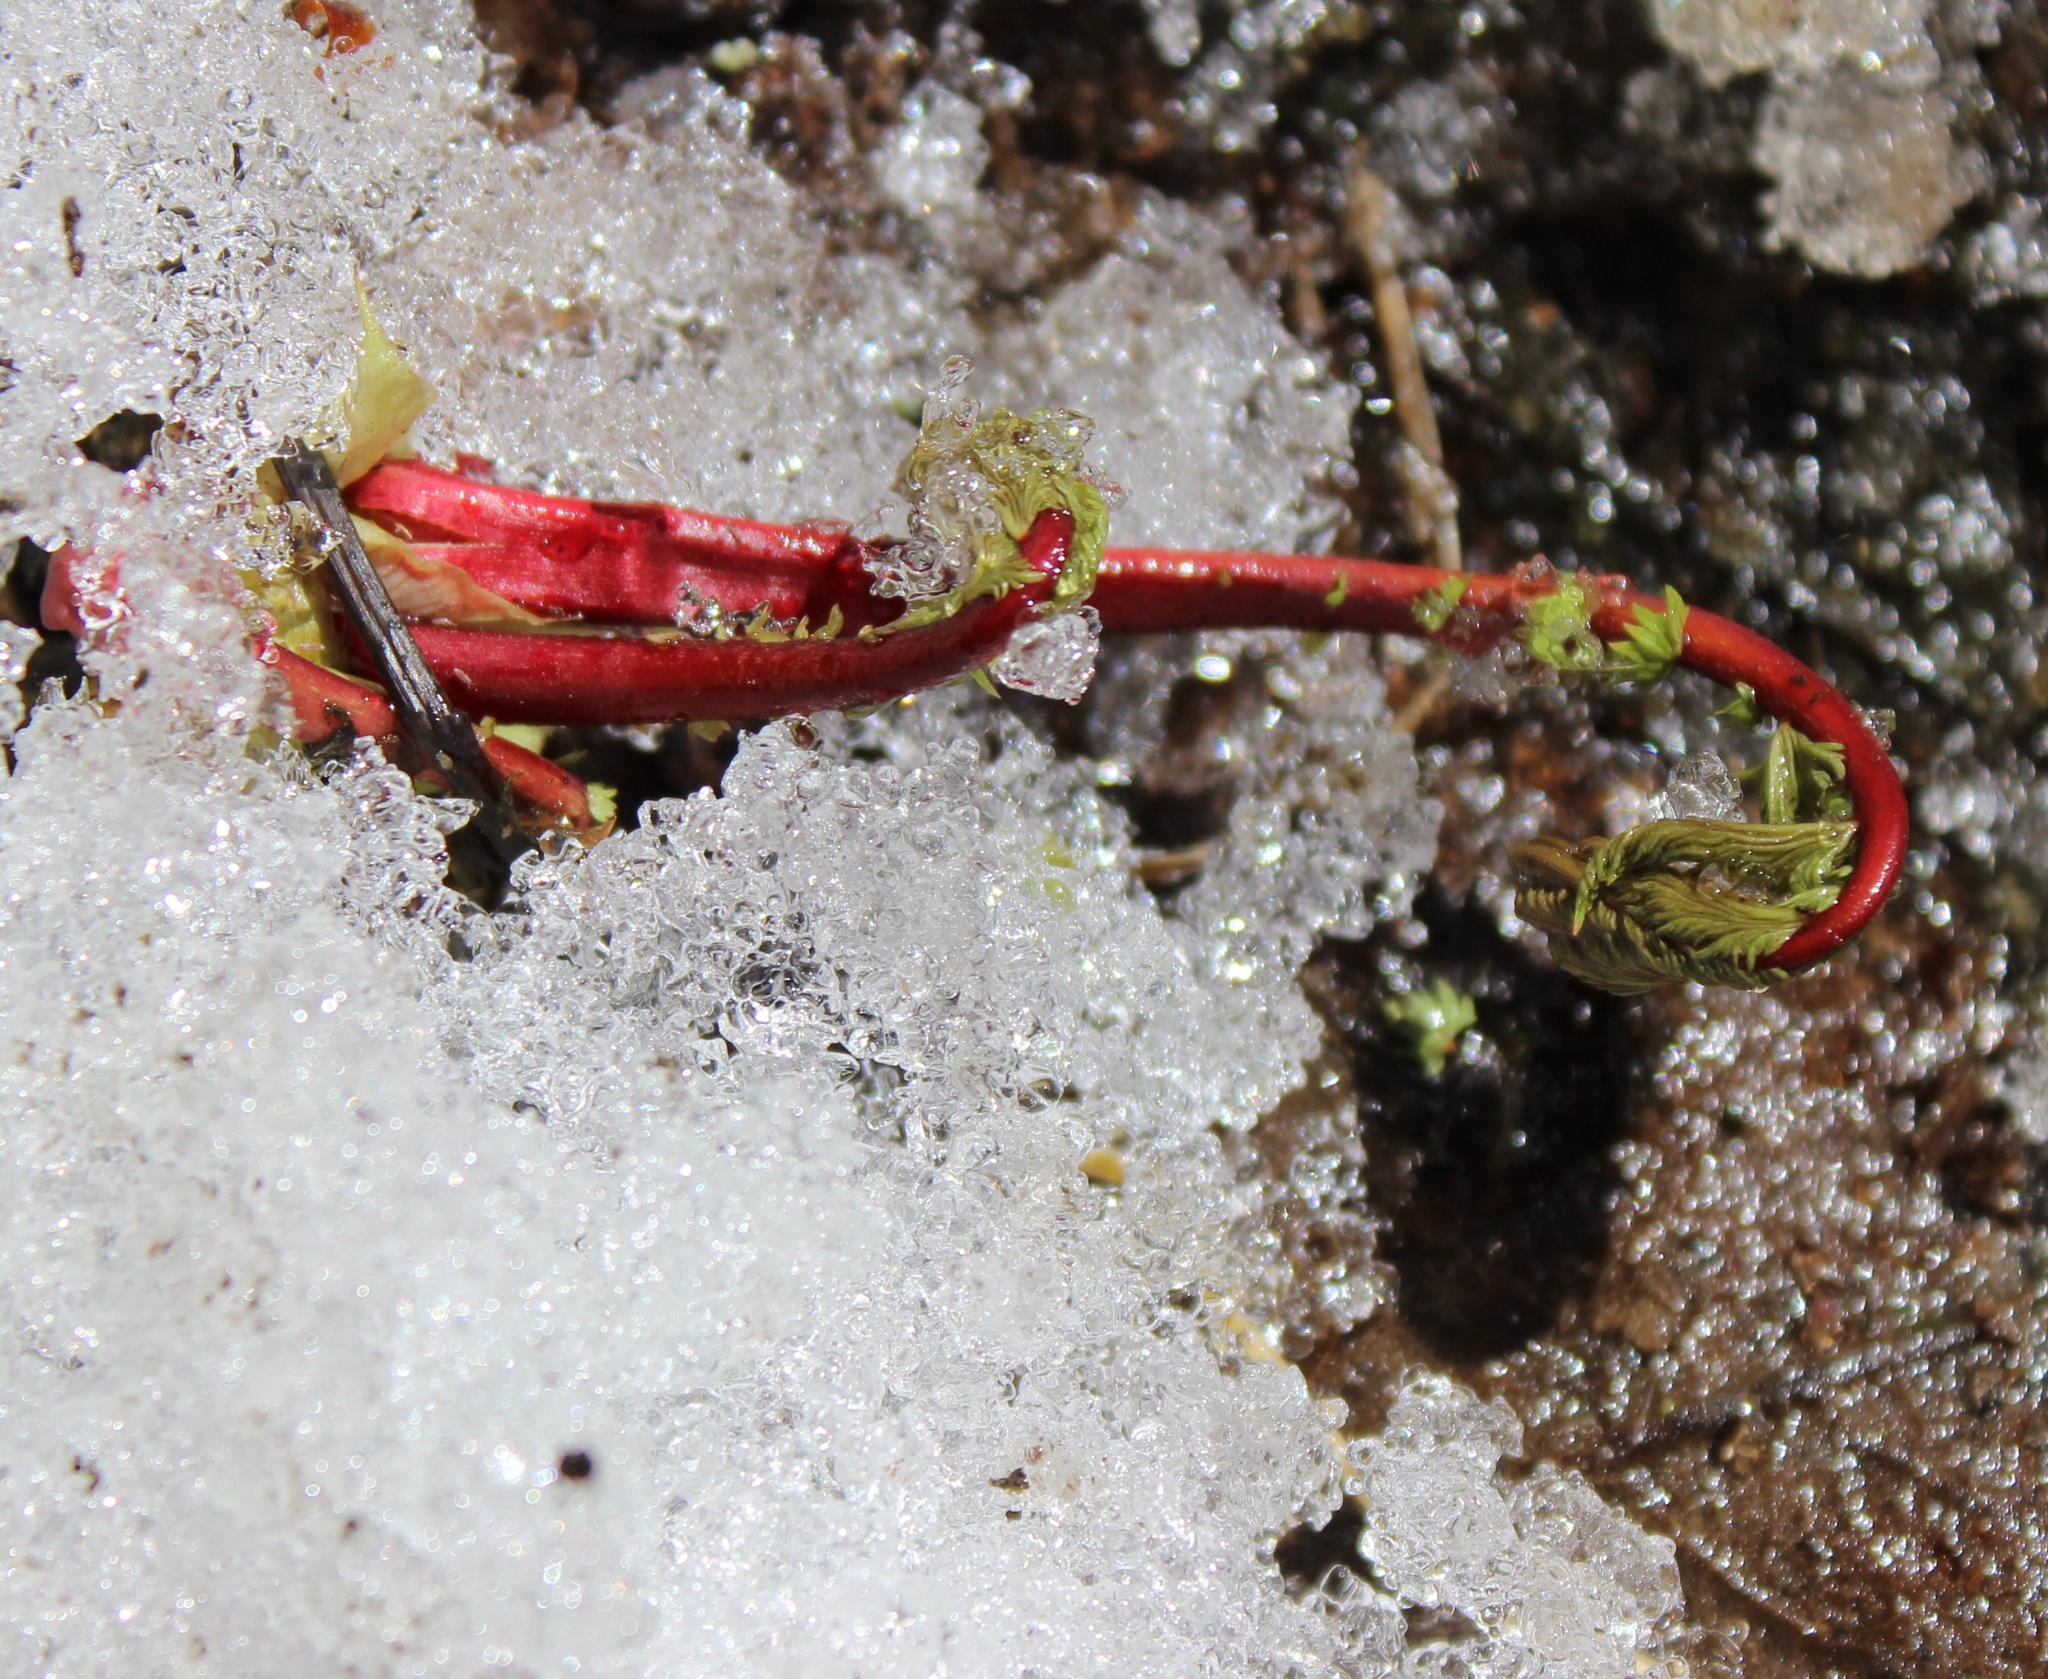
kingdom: Plantae
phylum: Tracheophyta
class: Magnoliopsida
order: Rosales
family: Rosaceae
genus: Filipendula
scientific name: Filipendula ulmaria
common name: Meadowsweet
